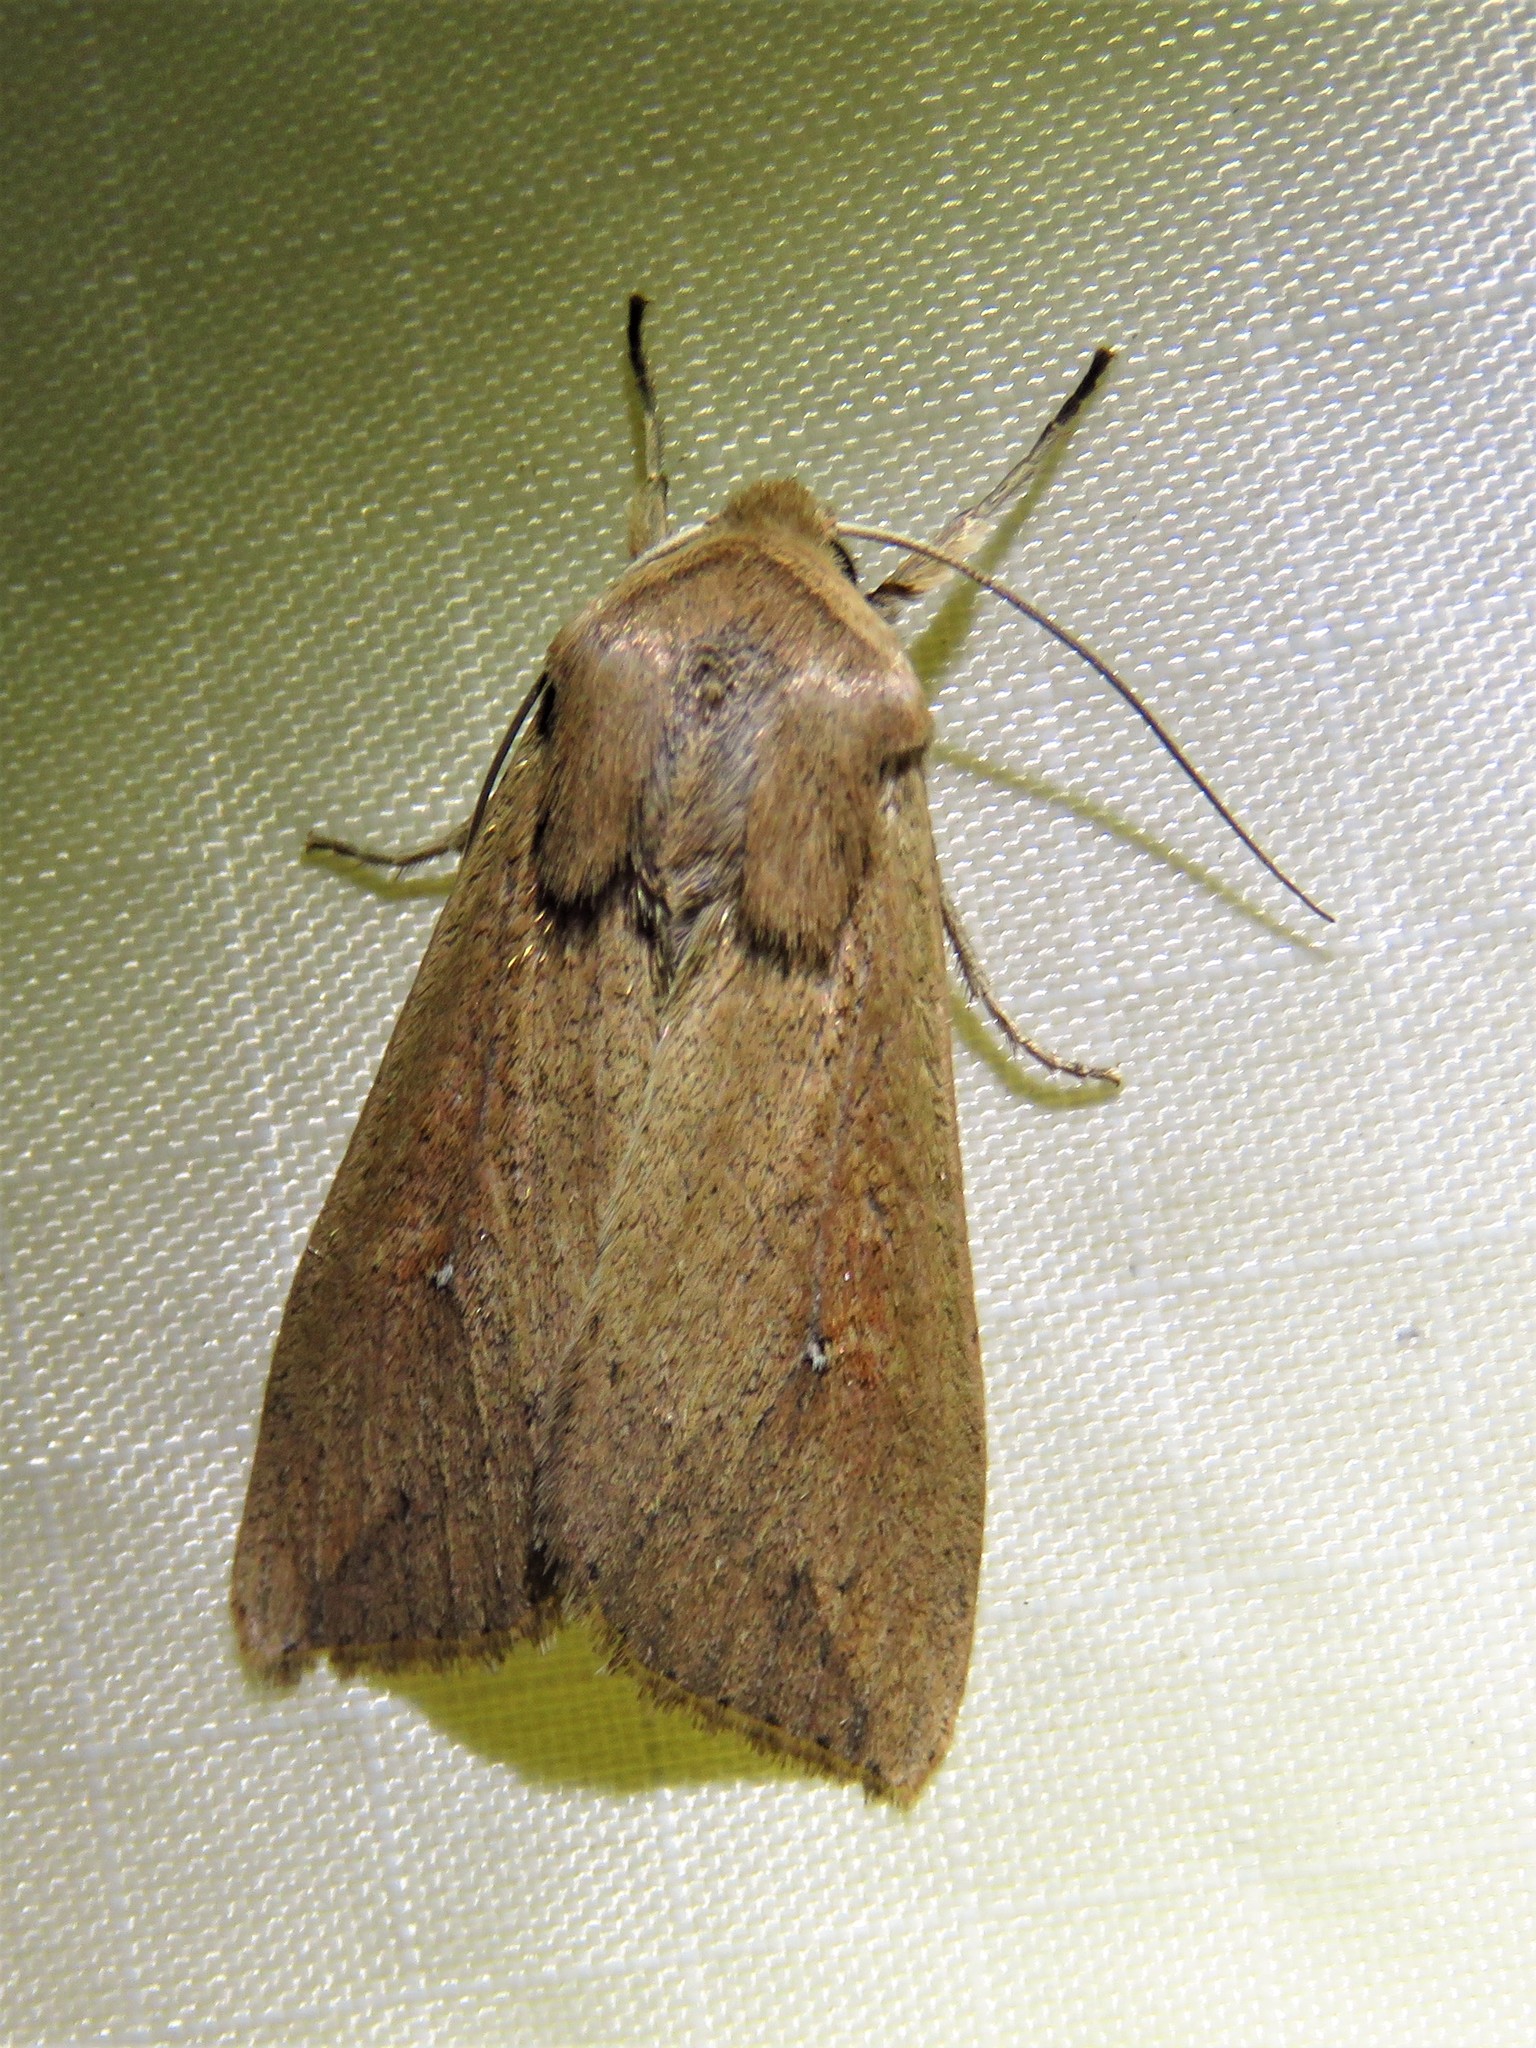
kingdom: Animalia
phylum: Arthropoda
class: Insecta
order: Lepidoptera
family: Noctuidae
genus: Mythimna
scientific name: Mythimna unipuncta
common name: White-speck
